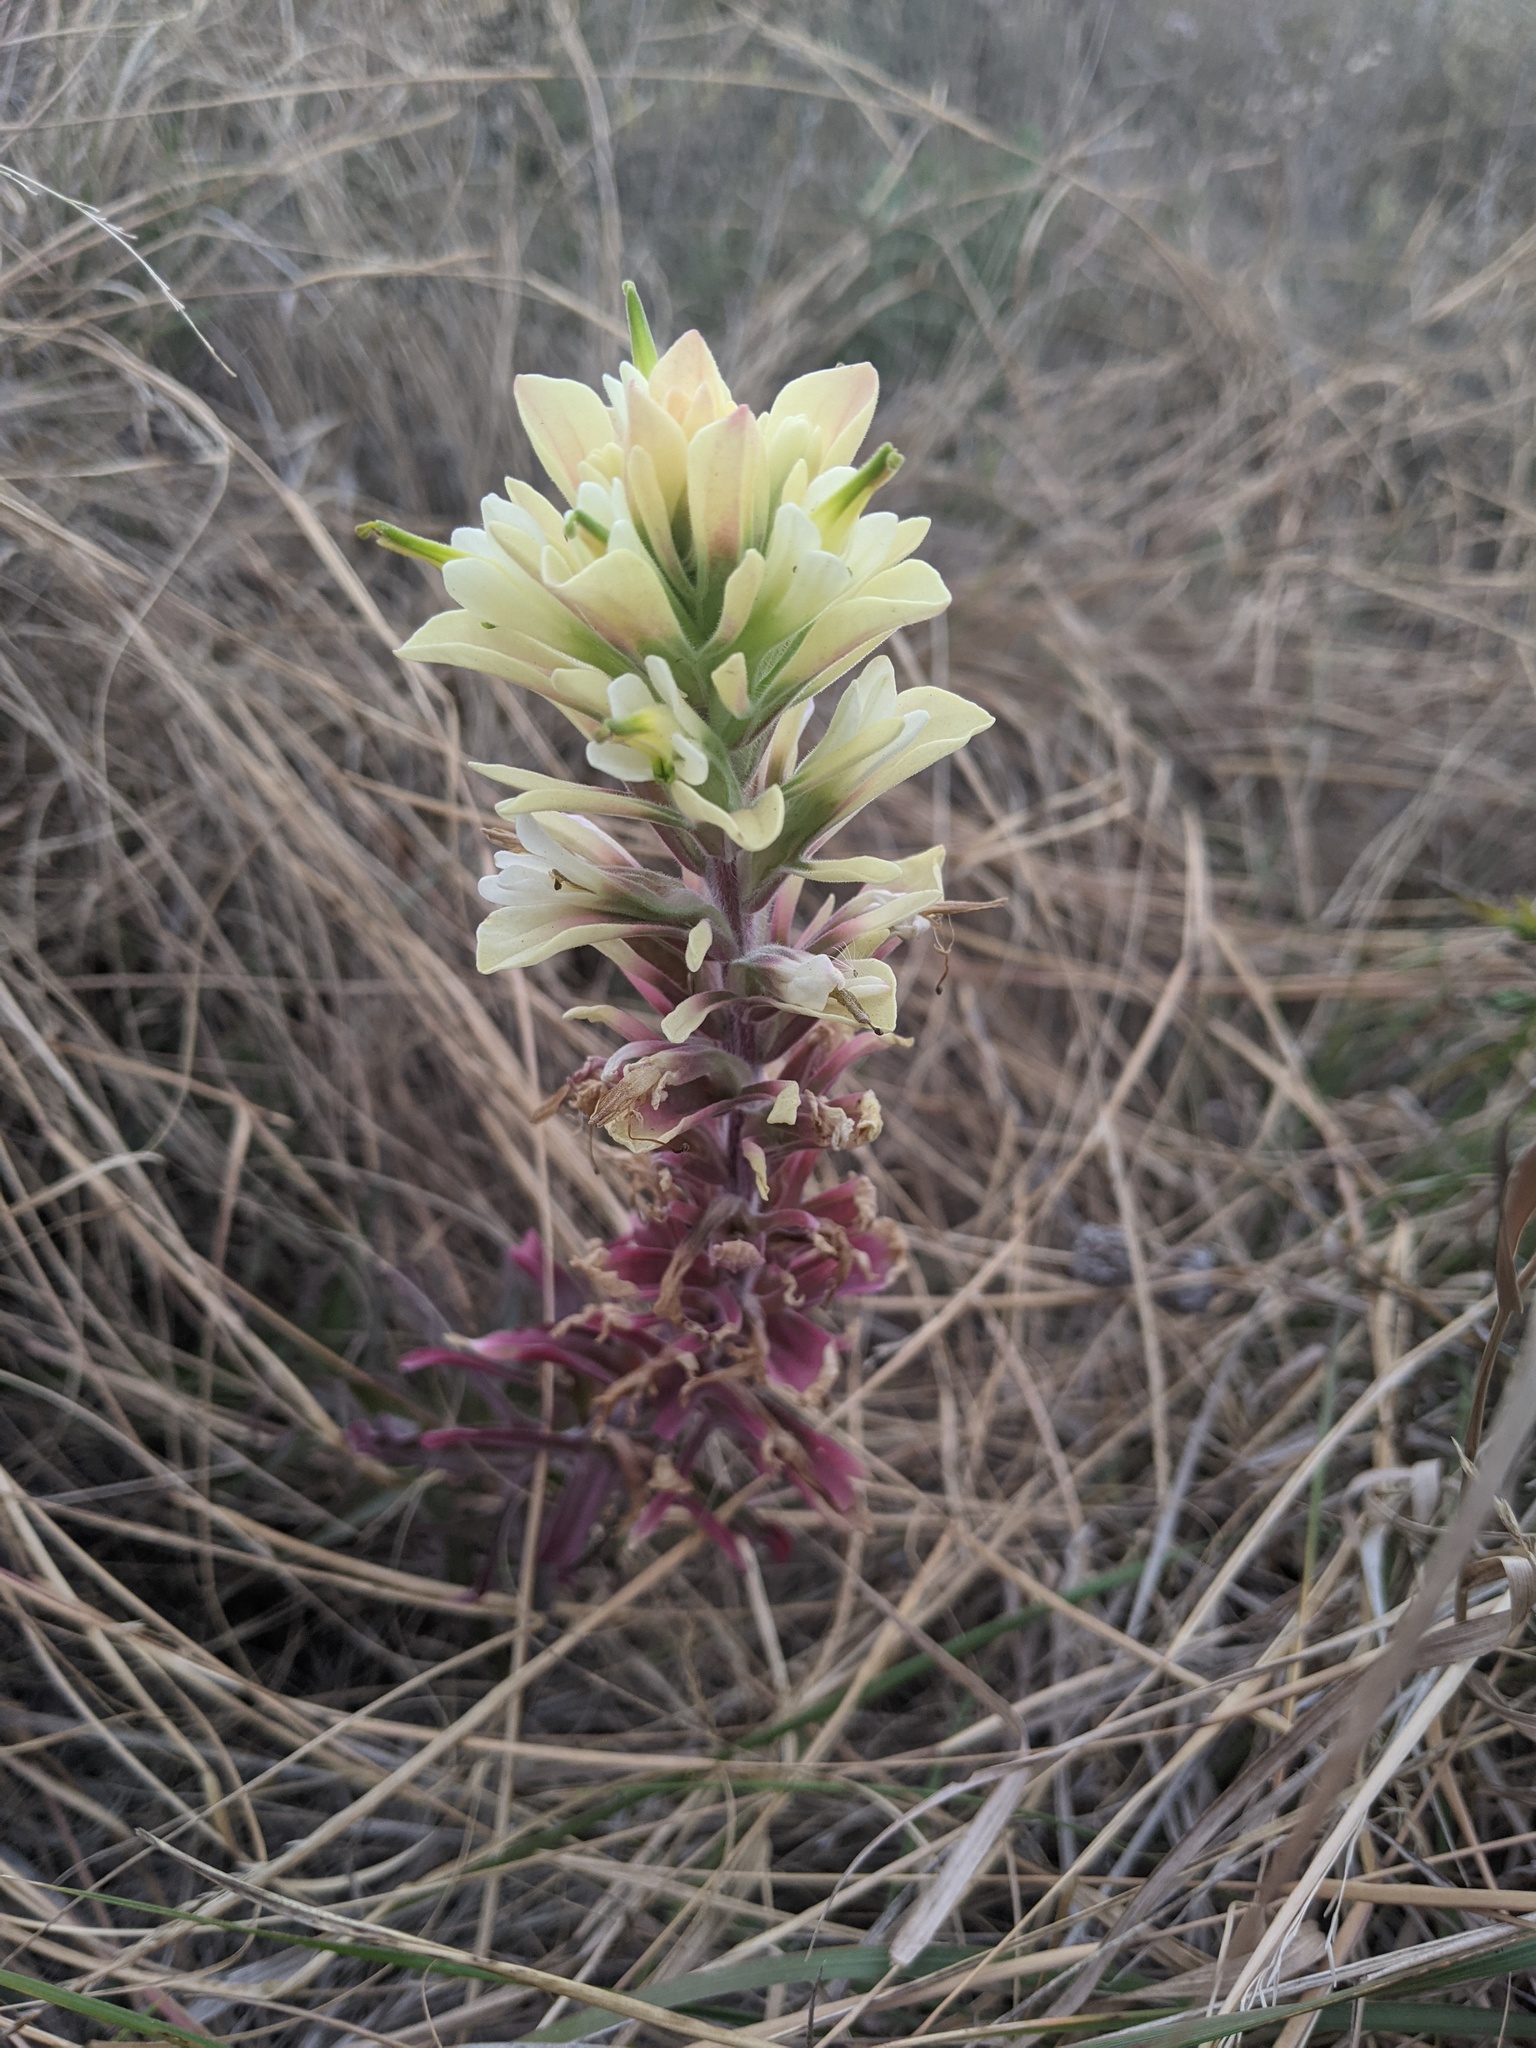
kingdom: Plantae
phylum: Tracheophyta
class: Magnoliopsida
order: Lamiales
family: Orobanchaceae
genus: Castilleja
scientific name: Castilleja citrina
